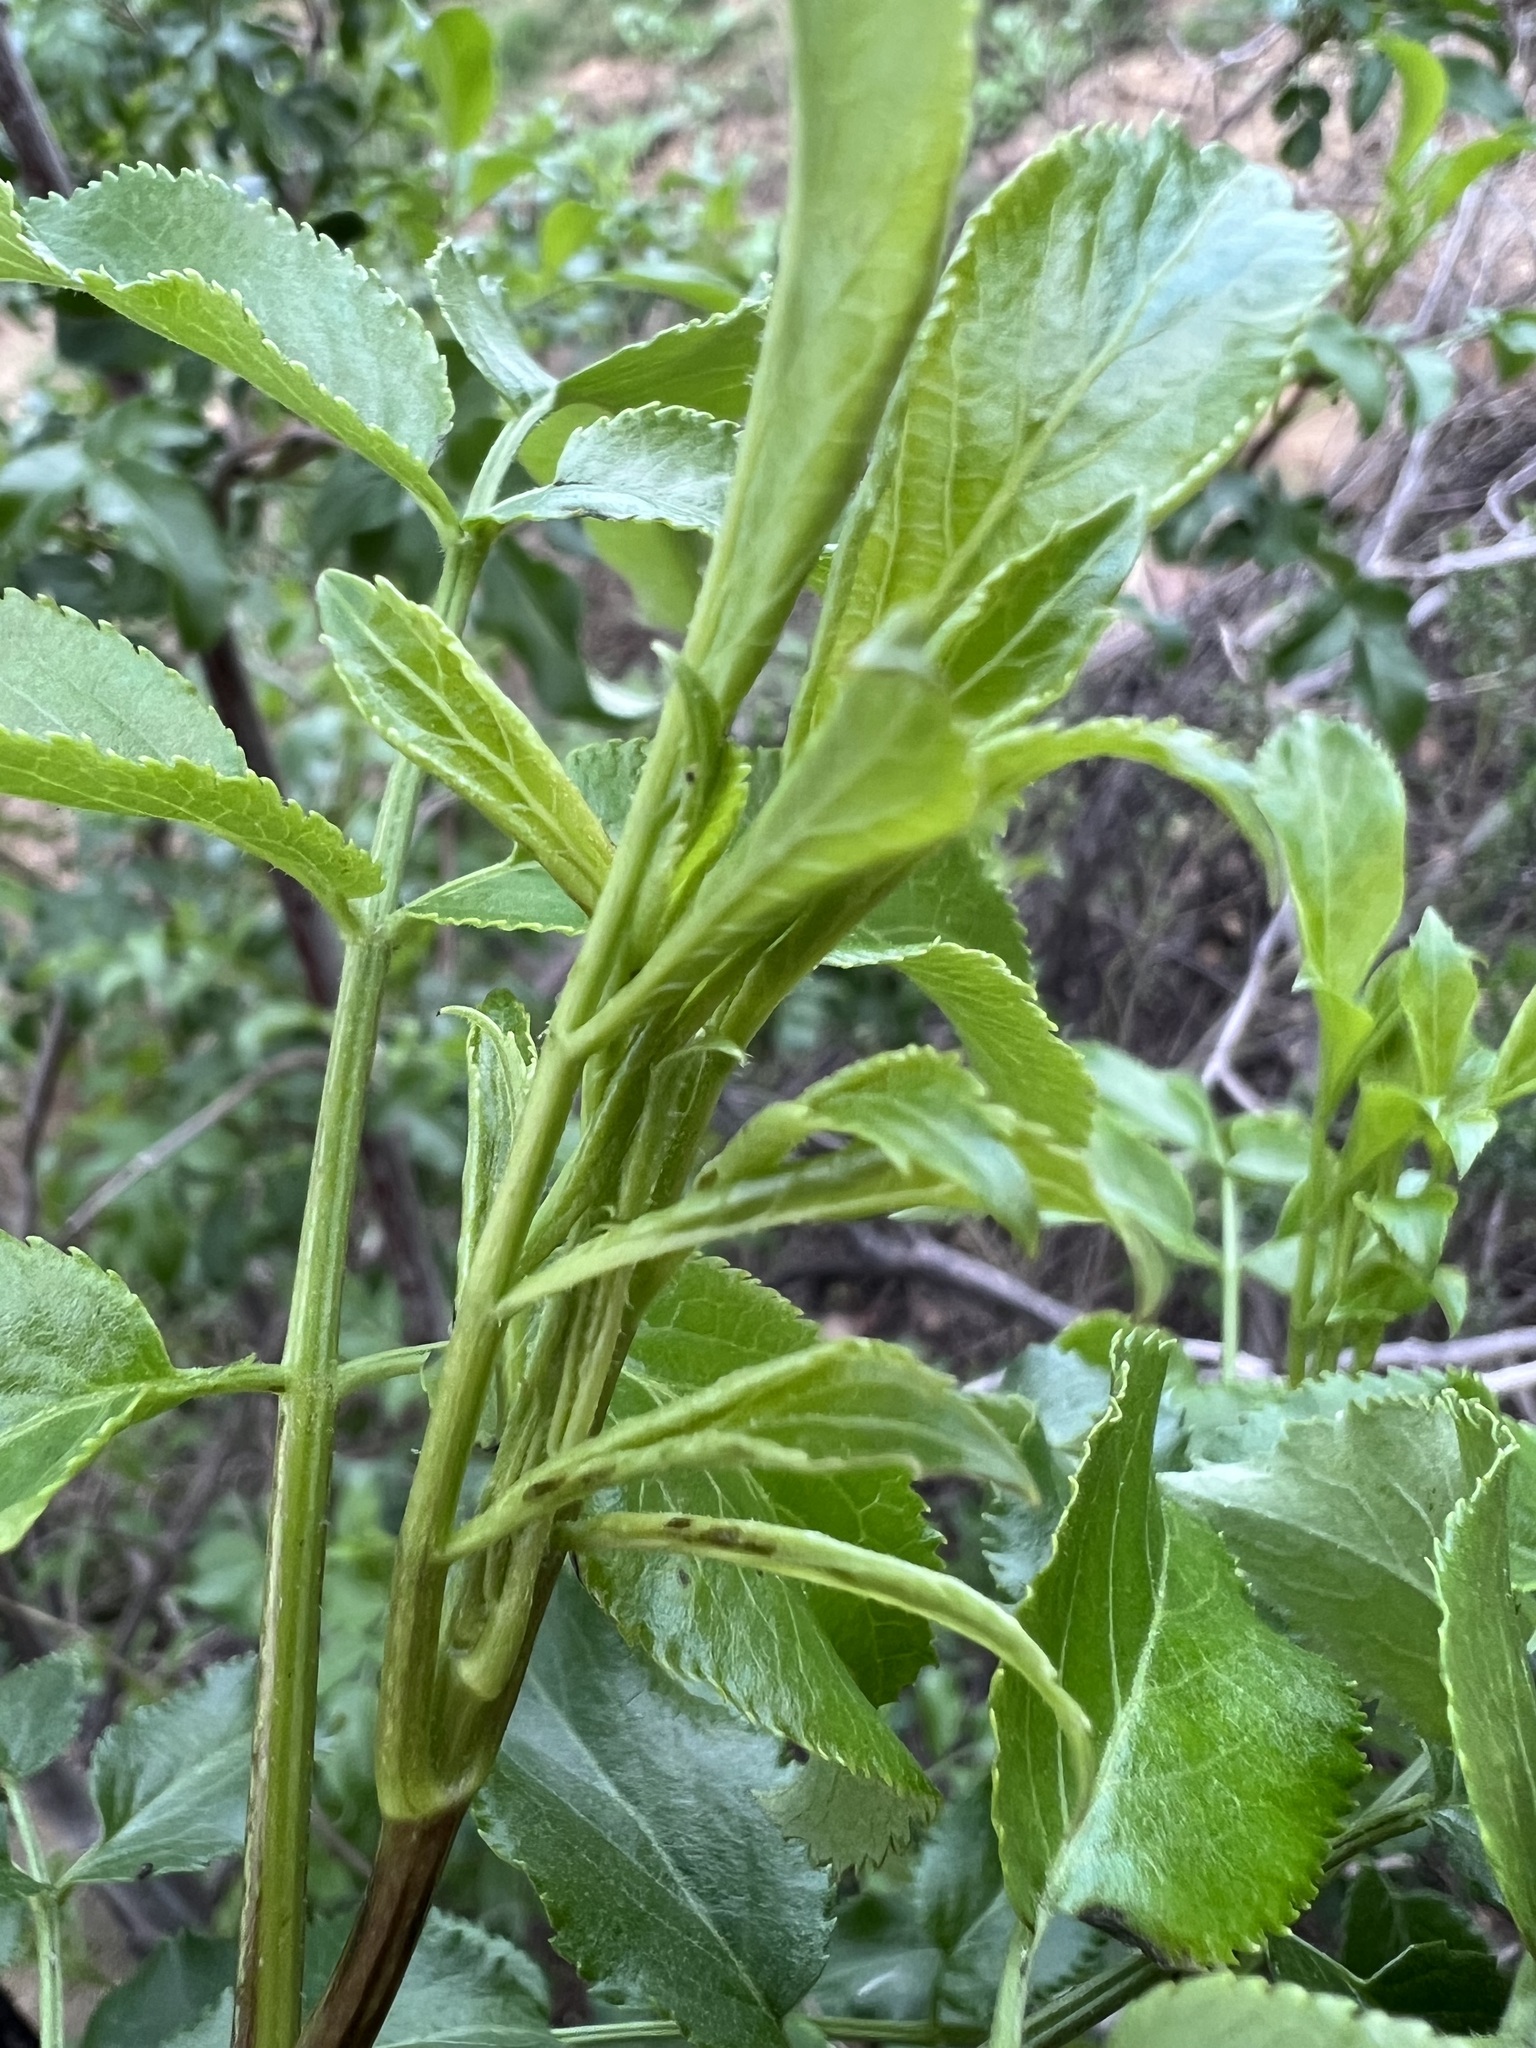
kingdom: Plantae
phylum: Tracheophyta
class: Magnoliopsida
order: Dipsacales
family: Viburnaceae
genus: Sambucus
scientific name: Sambucus cerulea
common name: Blue elder
